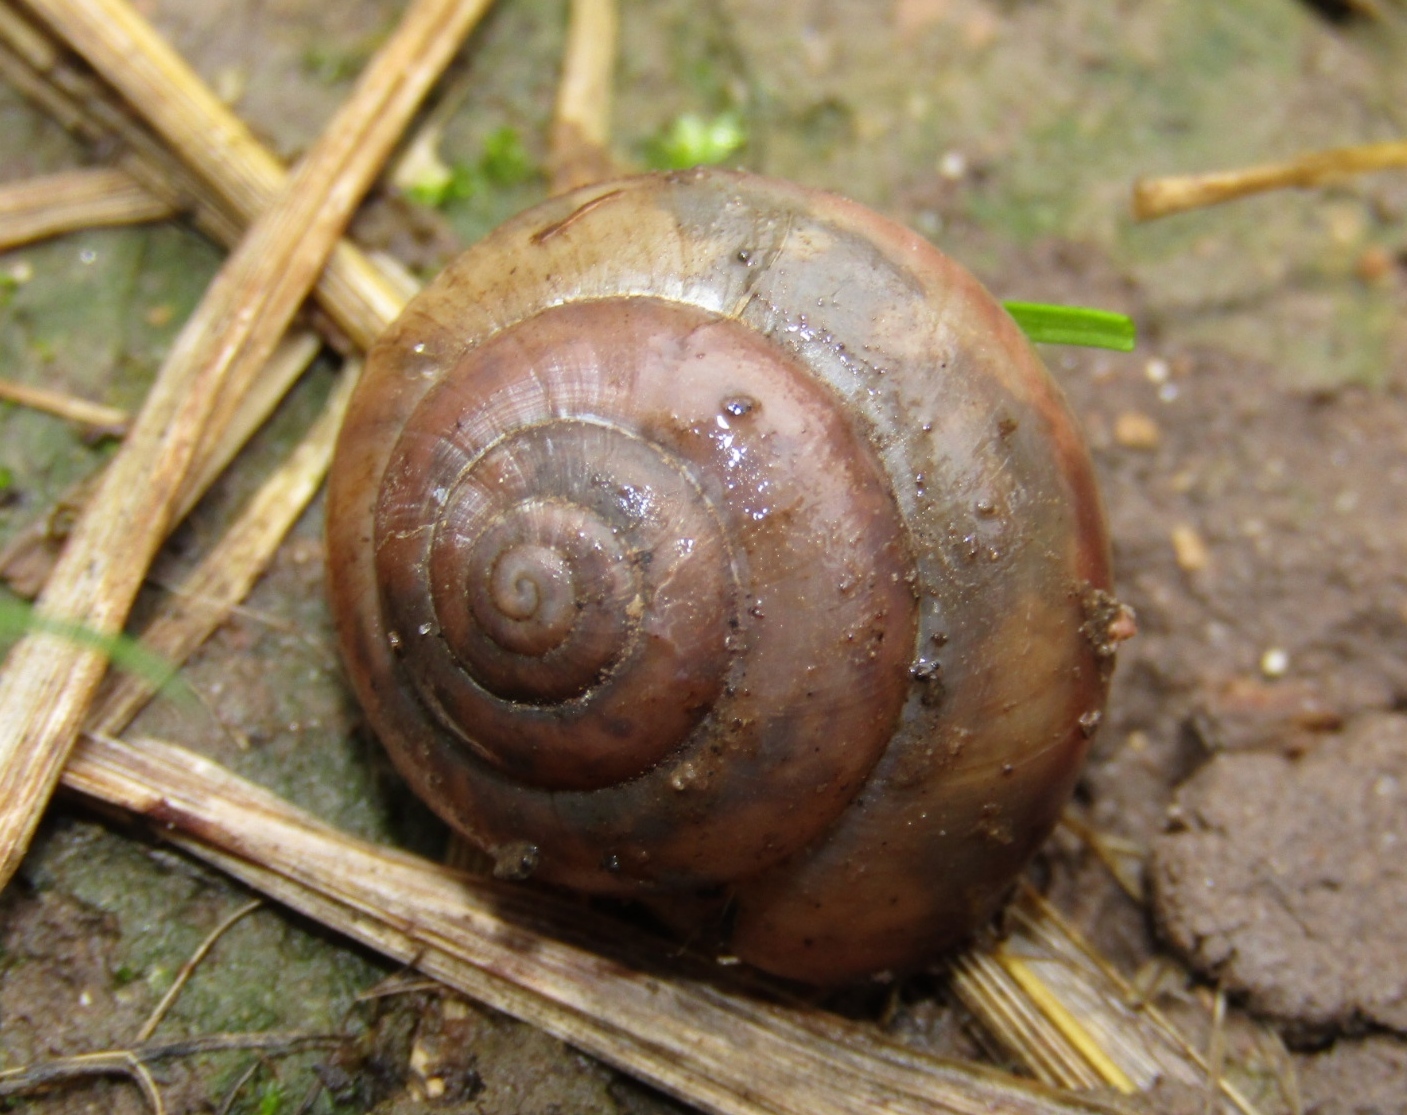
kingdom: Animalia
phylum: Mollusca
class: Gastropoda
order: Stylommatophora
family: Camaenidae
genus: Fruticicola
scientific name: Fruticicola fruticum
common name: Bush snail
